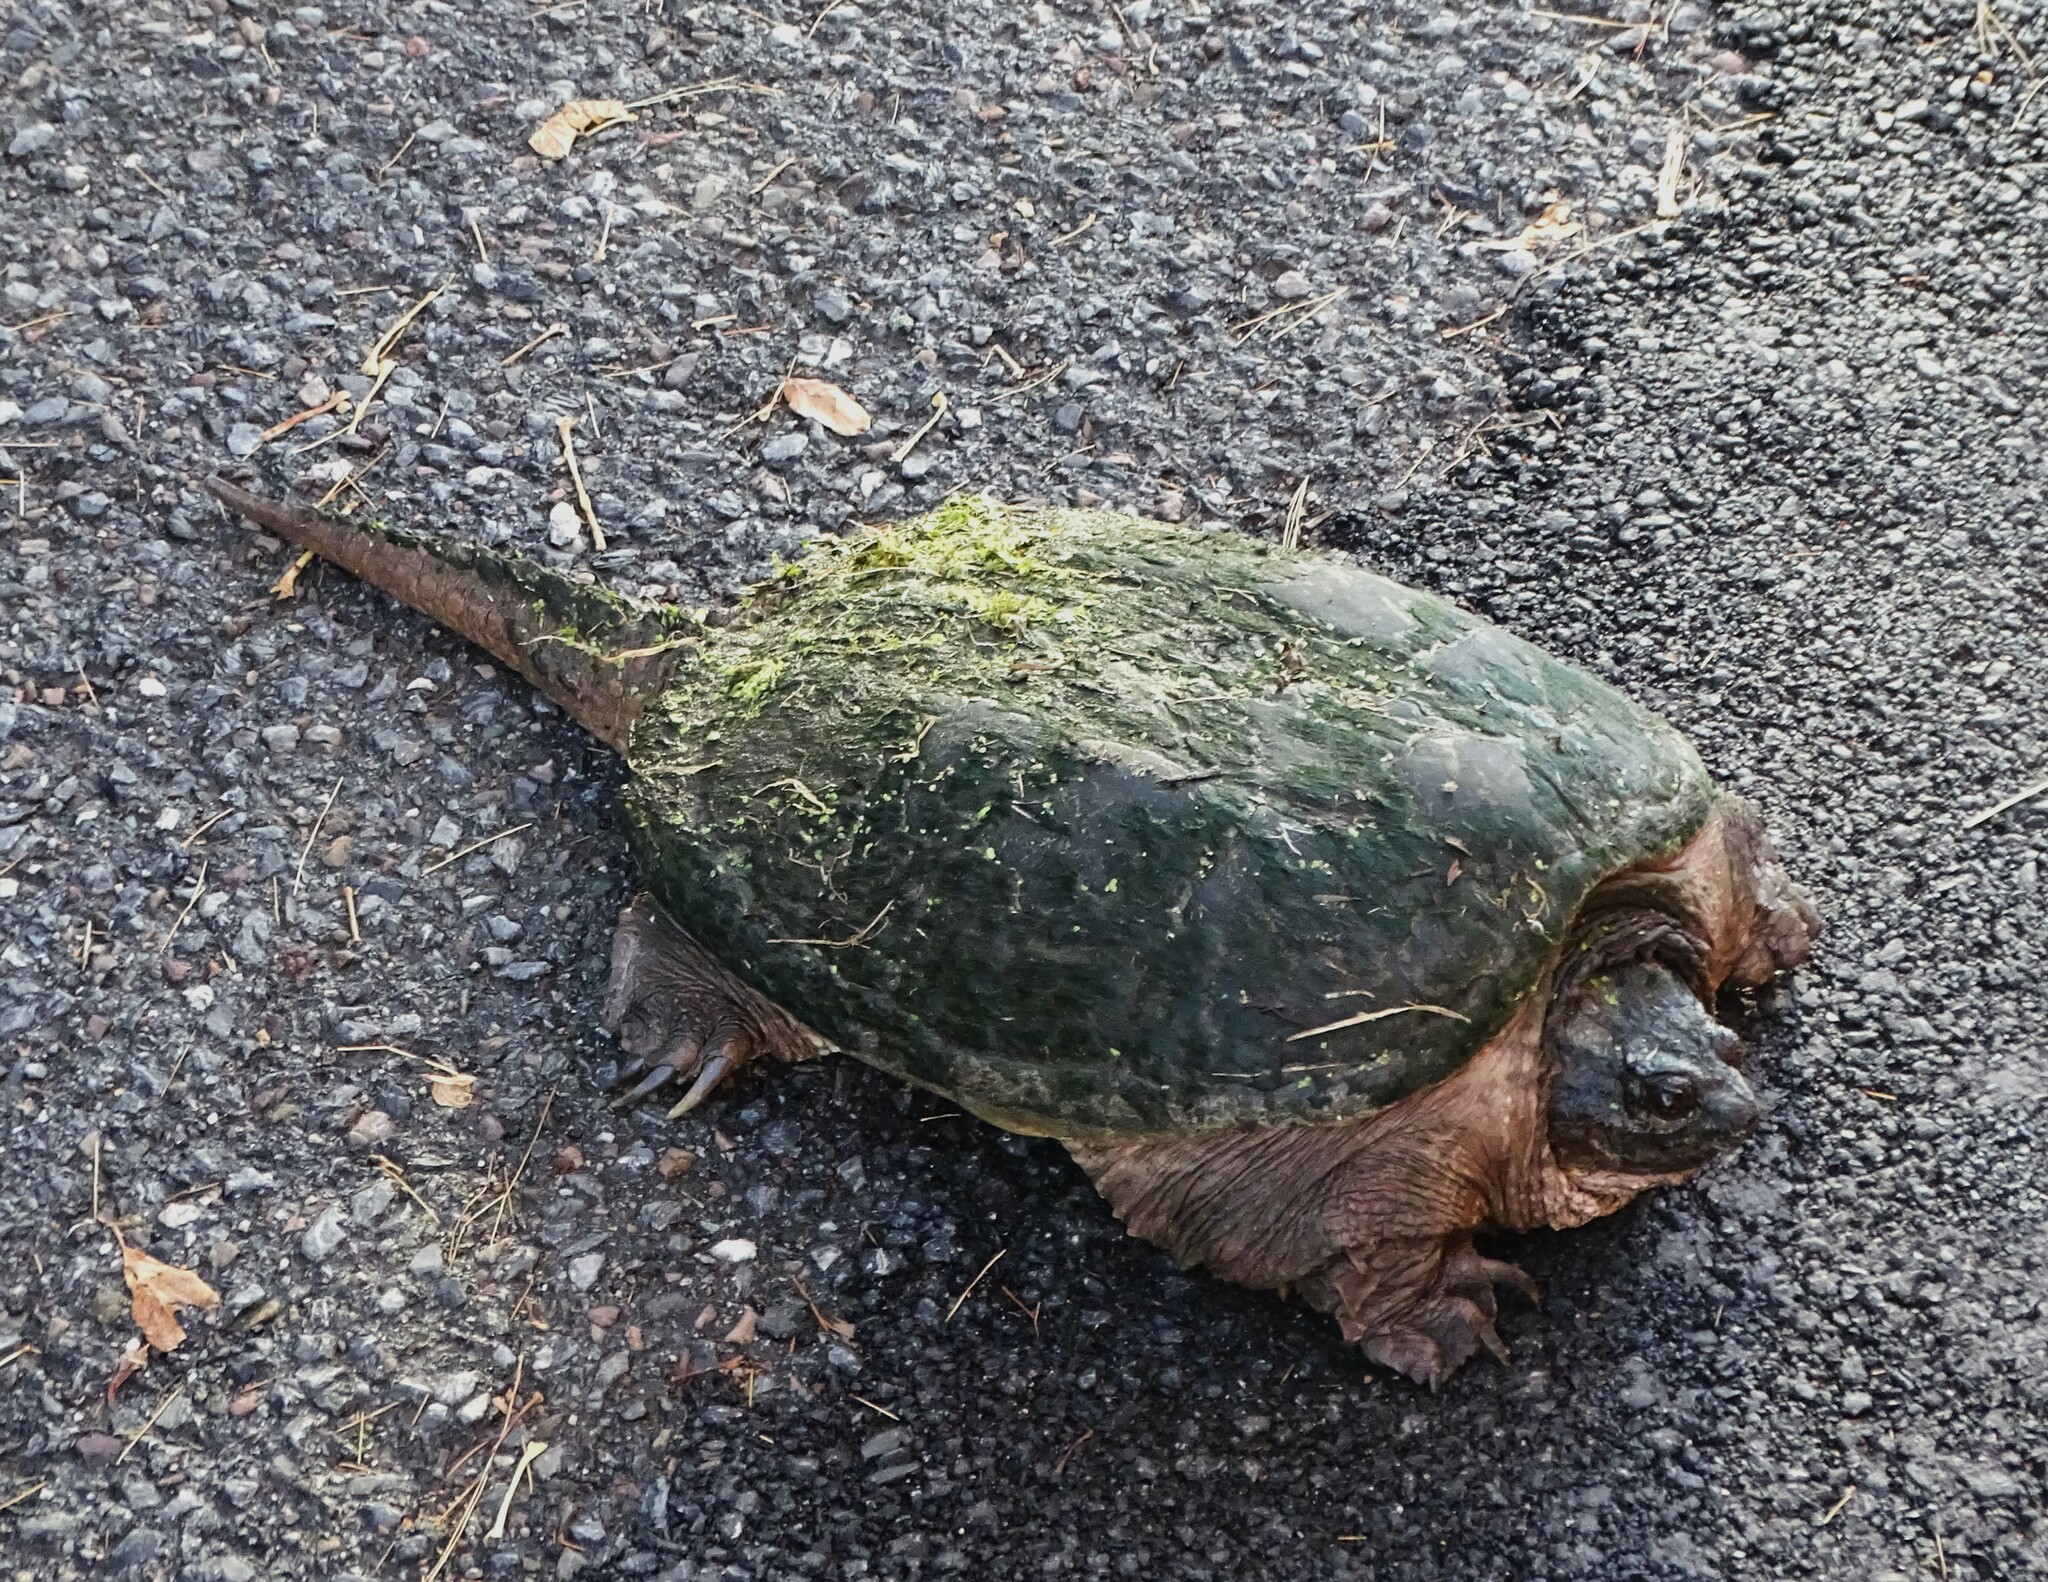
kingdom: Animalia
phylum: Chordata
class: Testudines
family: Chelydridae
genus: Chelydra
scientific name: Chelydra serpentina
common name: Common snapping turtle
